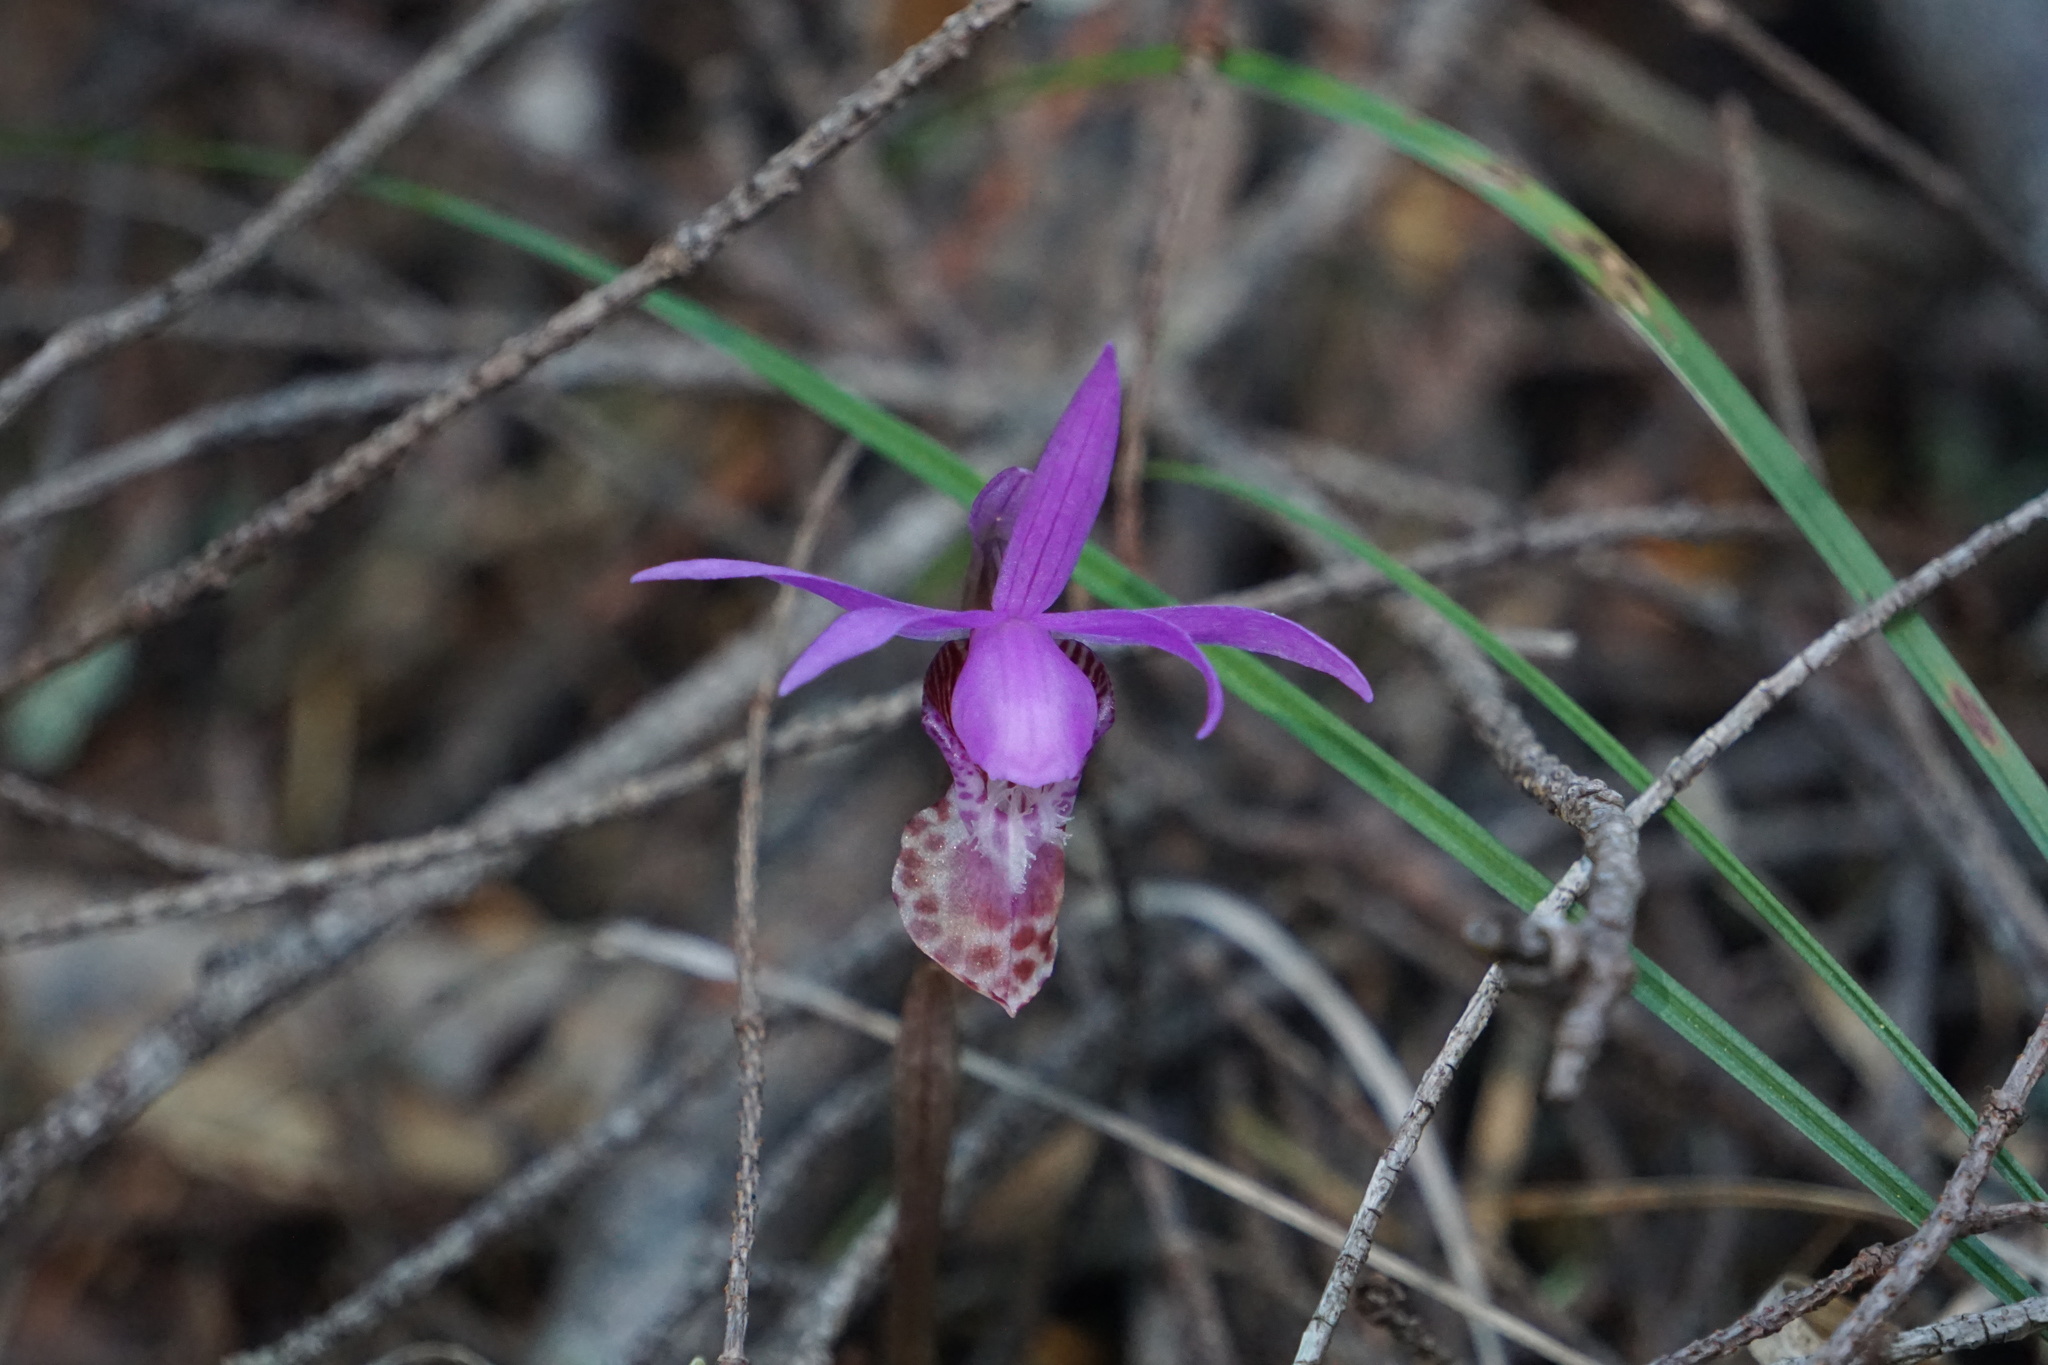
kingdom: Plantae
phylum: Tracheophyta
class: Liliopsida
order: Asparagales
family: Orchidaceae
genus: Calypso
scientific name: Calypso bulbosa
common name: Calypso
